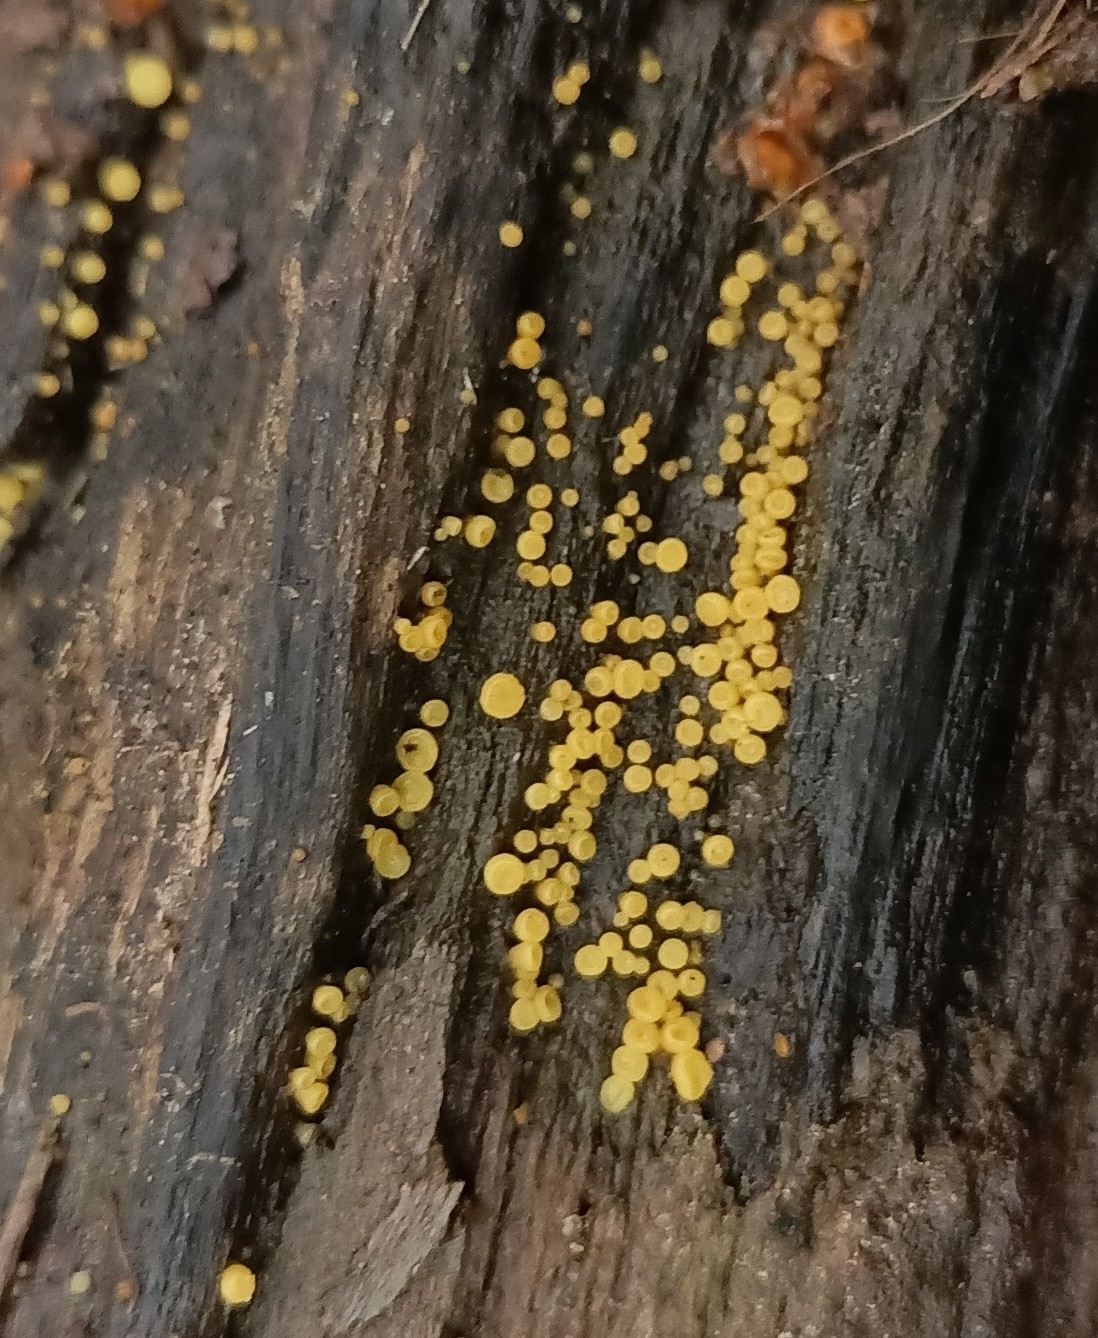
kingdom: Fungi
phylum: Ascomycota
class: Leotiomycetes
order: Helotiales
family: Pezizellaceae
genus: Calycina
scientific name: Calycina citrina
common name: Yellow fairy cups
